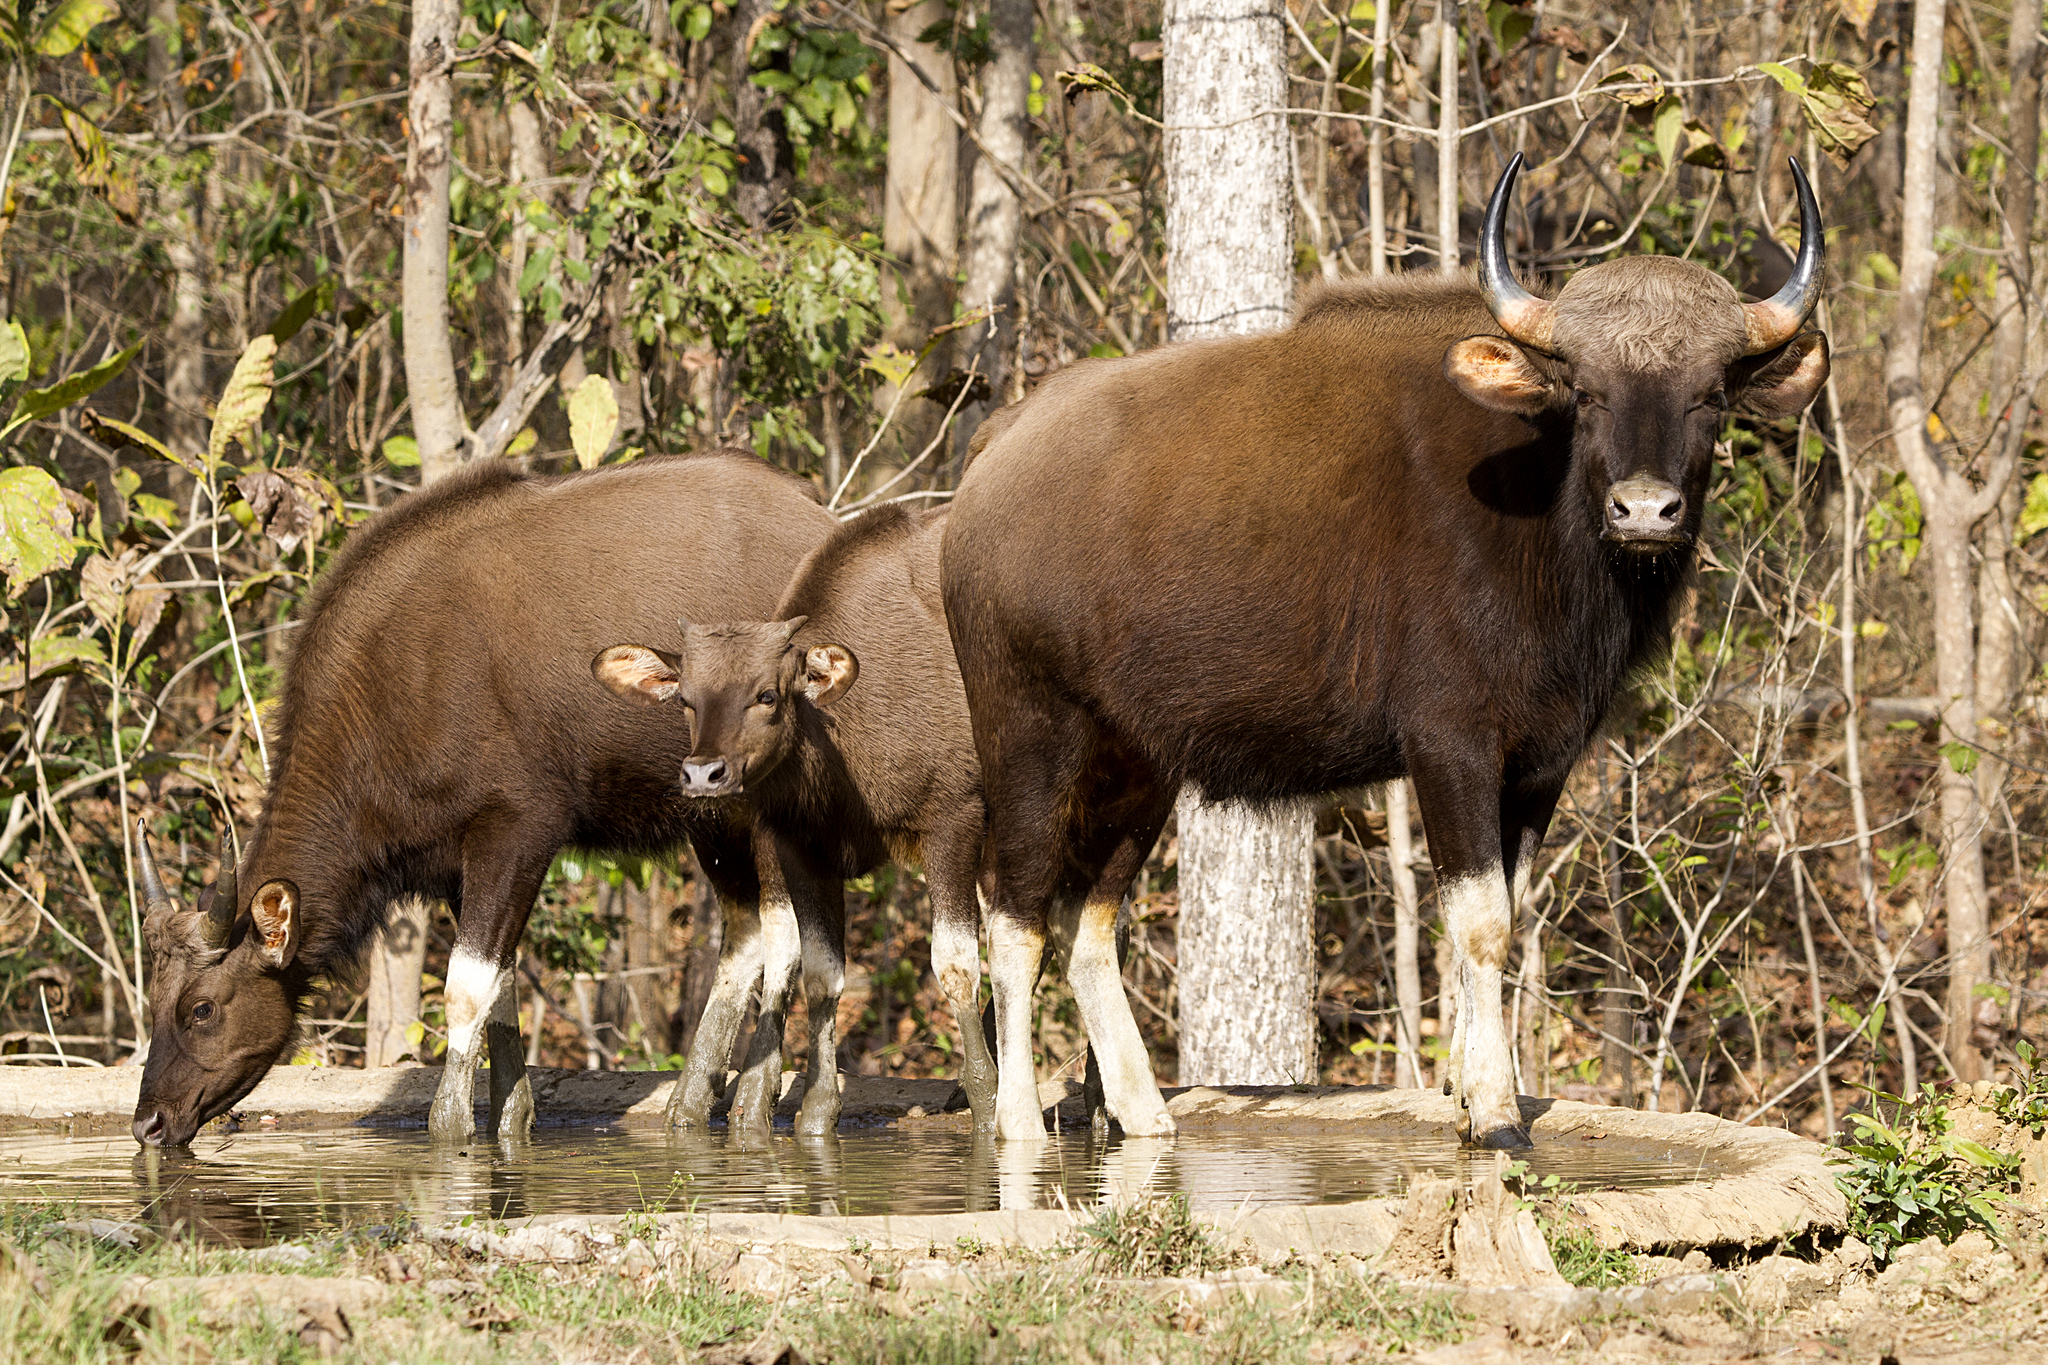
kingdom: Animalia
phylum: Chordata
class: Mammalia
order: Artiodactyla
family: Bovidae
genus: Bos
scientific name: Bos frontalis
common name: Gaur
